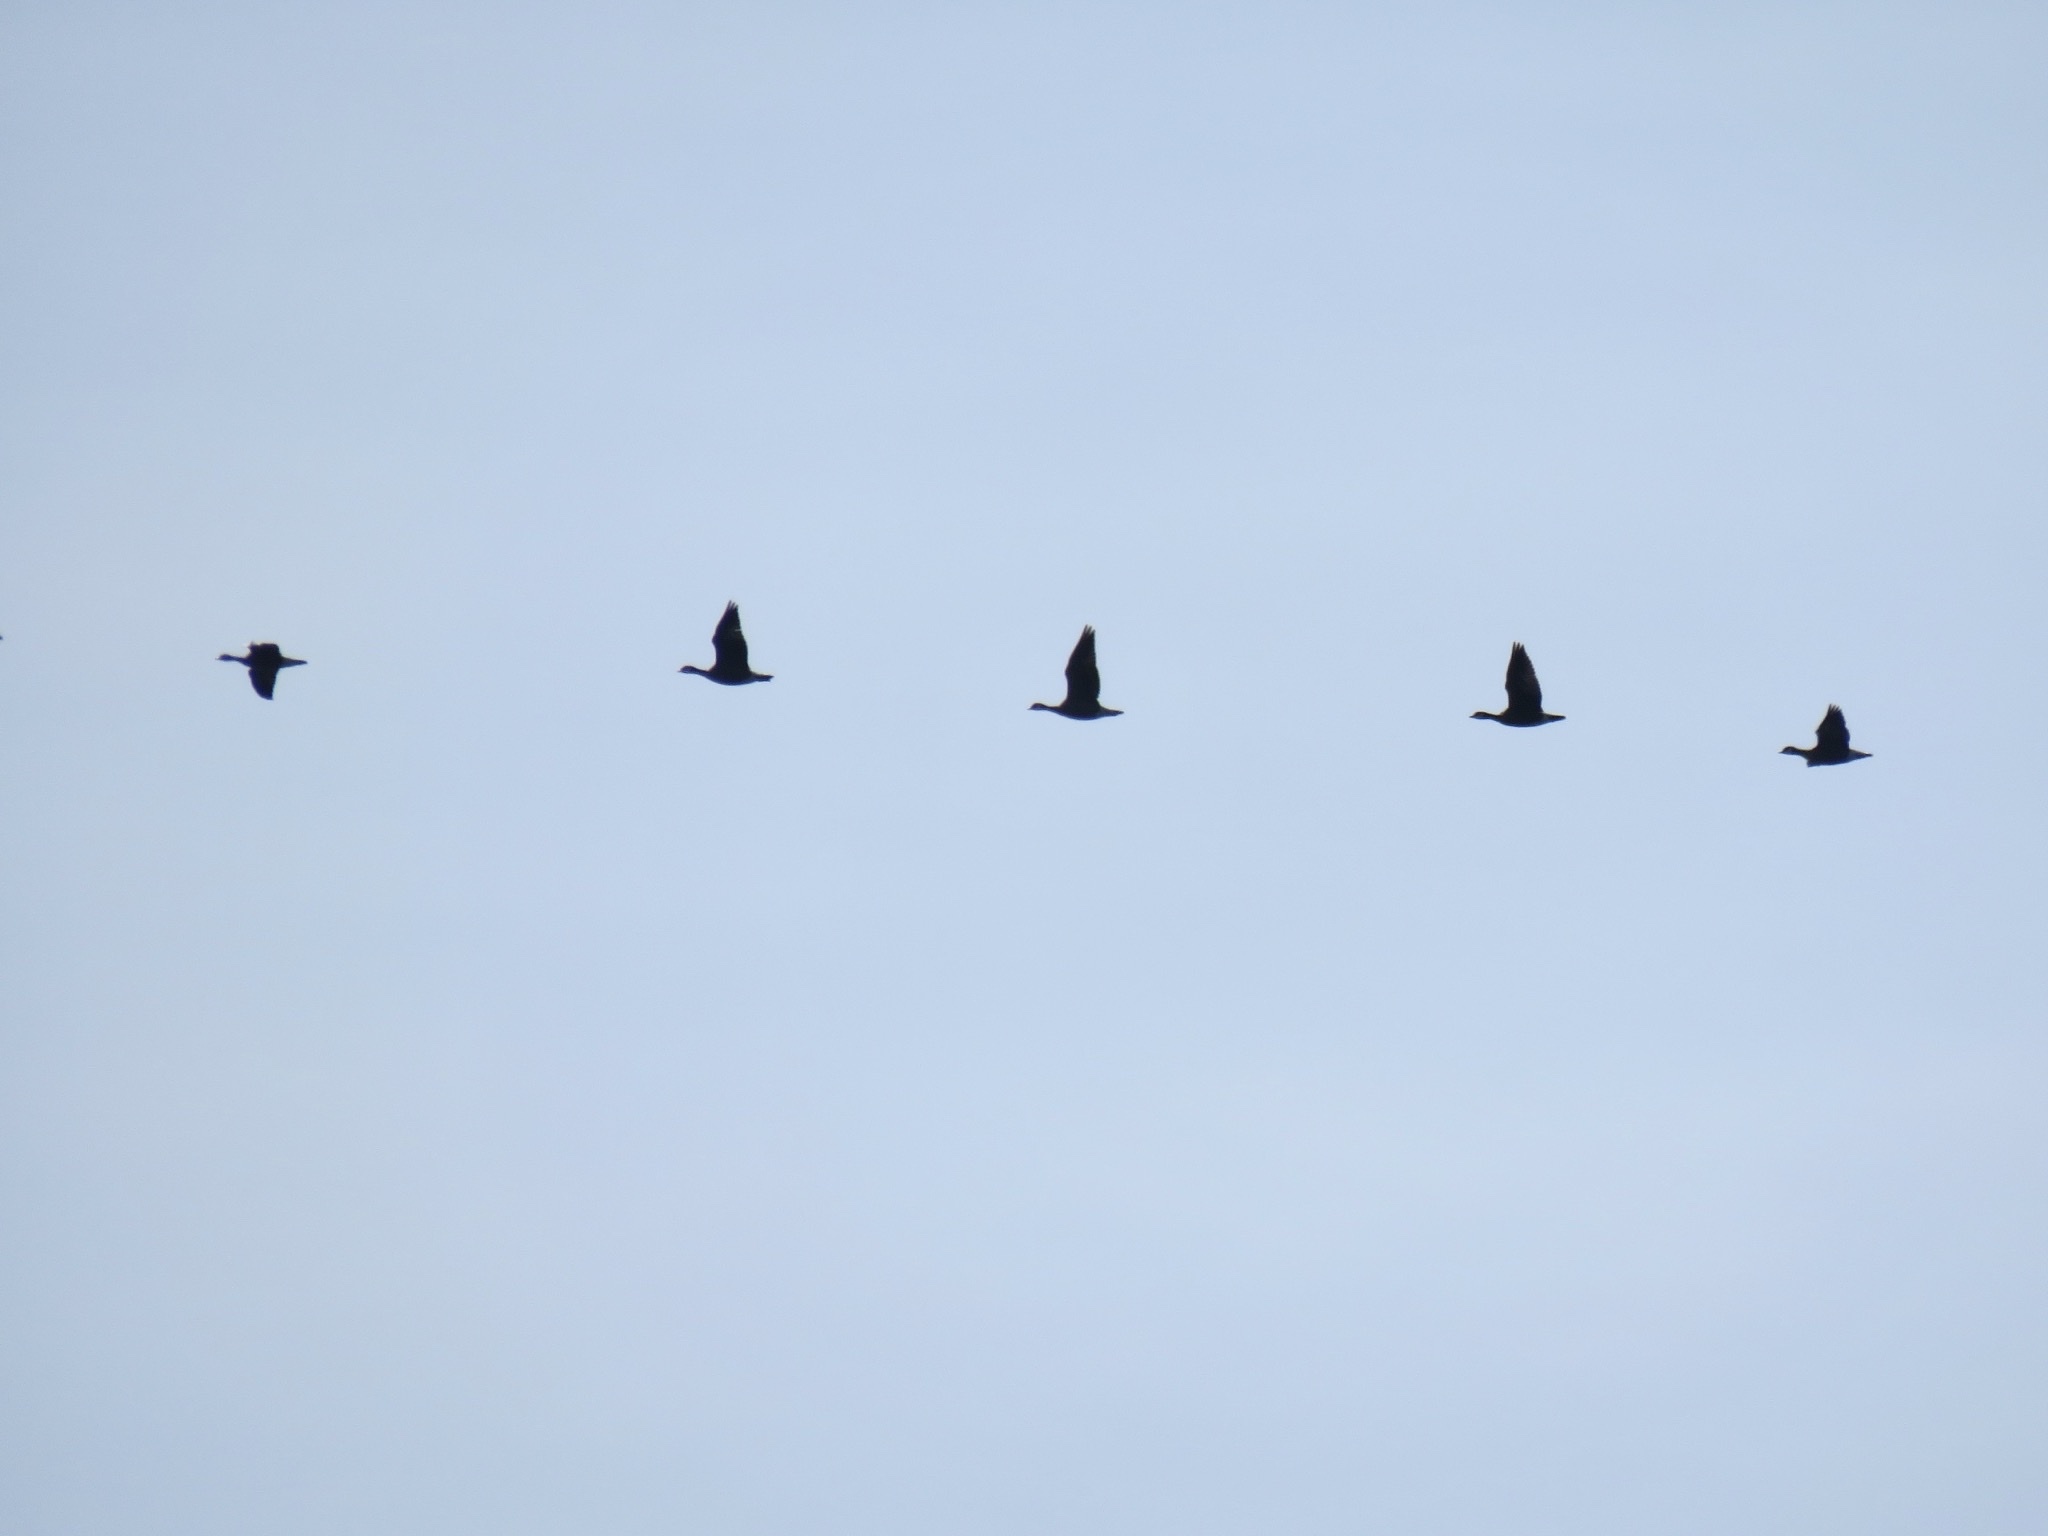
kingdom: Animalia
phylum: Chordata
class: Aves
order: Anseriformes
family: Anatidae
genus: Branta
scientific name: Branta hutchinsii
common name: Cackling goose
